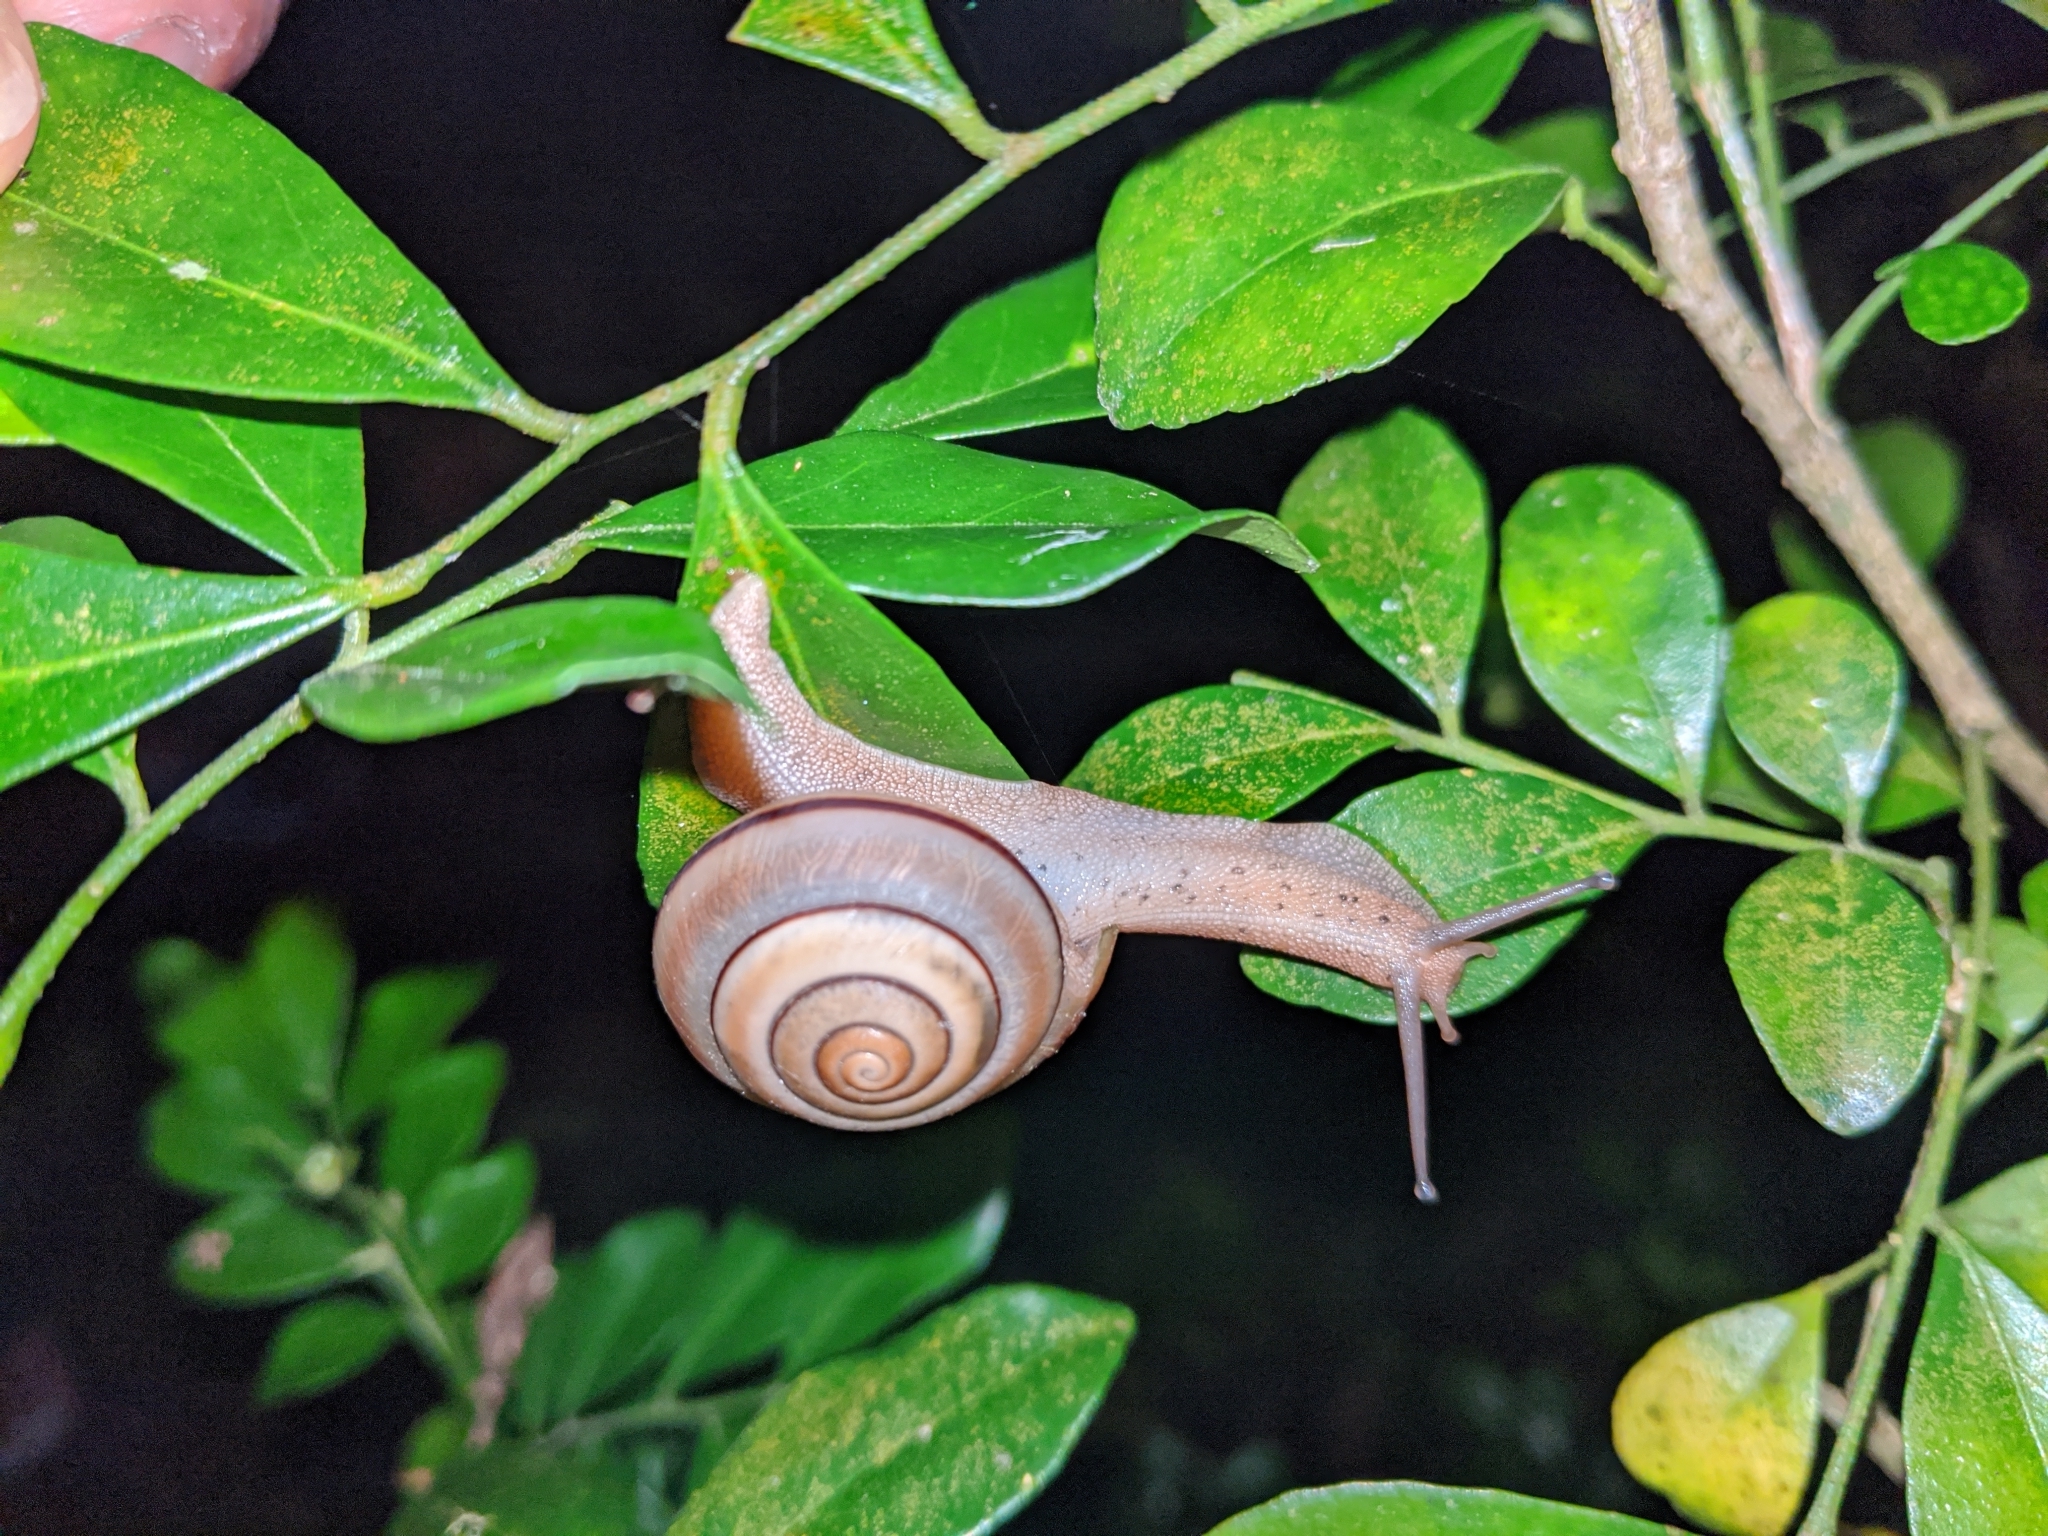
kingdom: Animalia
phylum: Mollusca
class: Gastropoda
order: Stylommatophora
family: Camaenidae
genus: Satsuma
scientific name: Satsuma wenshini
